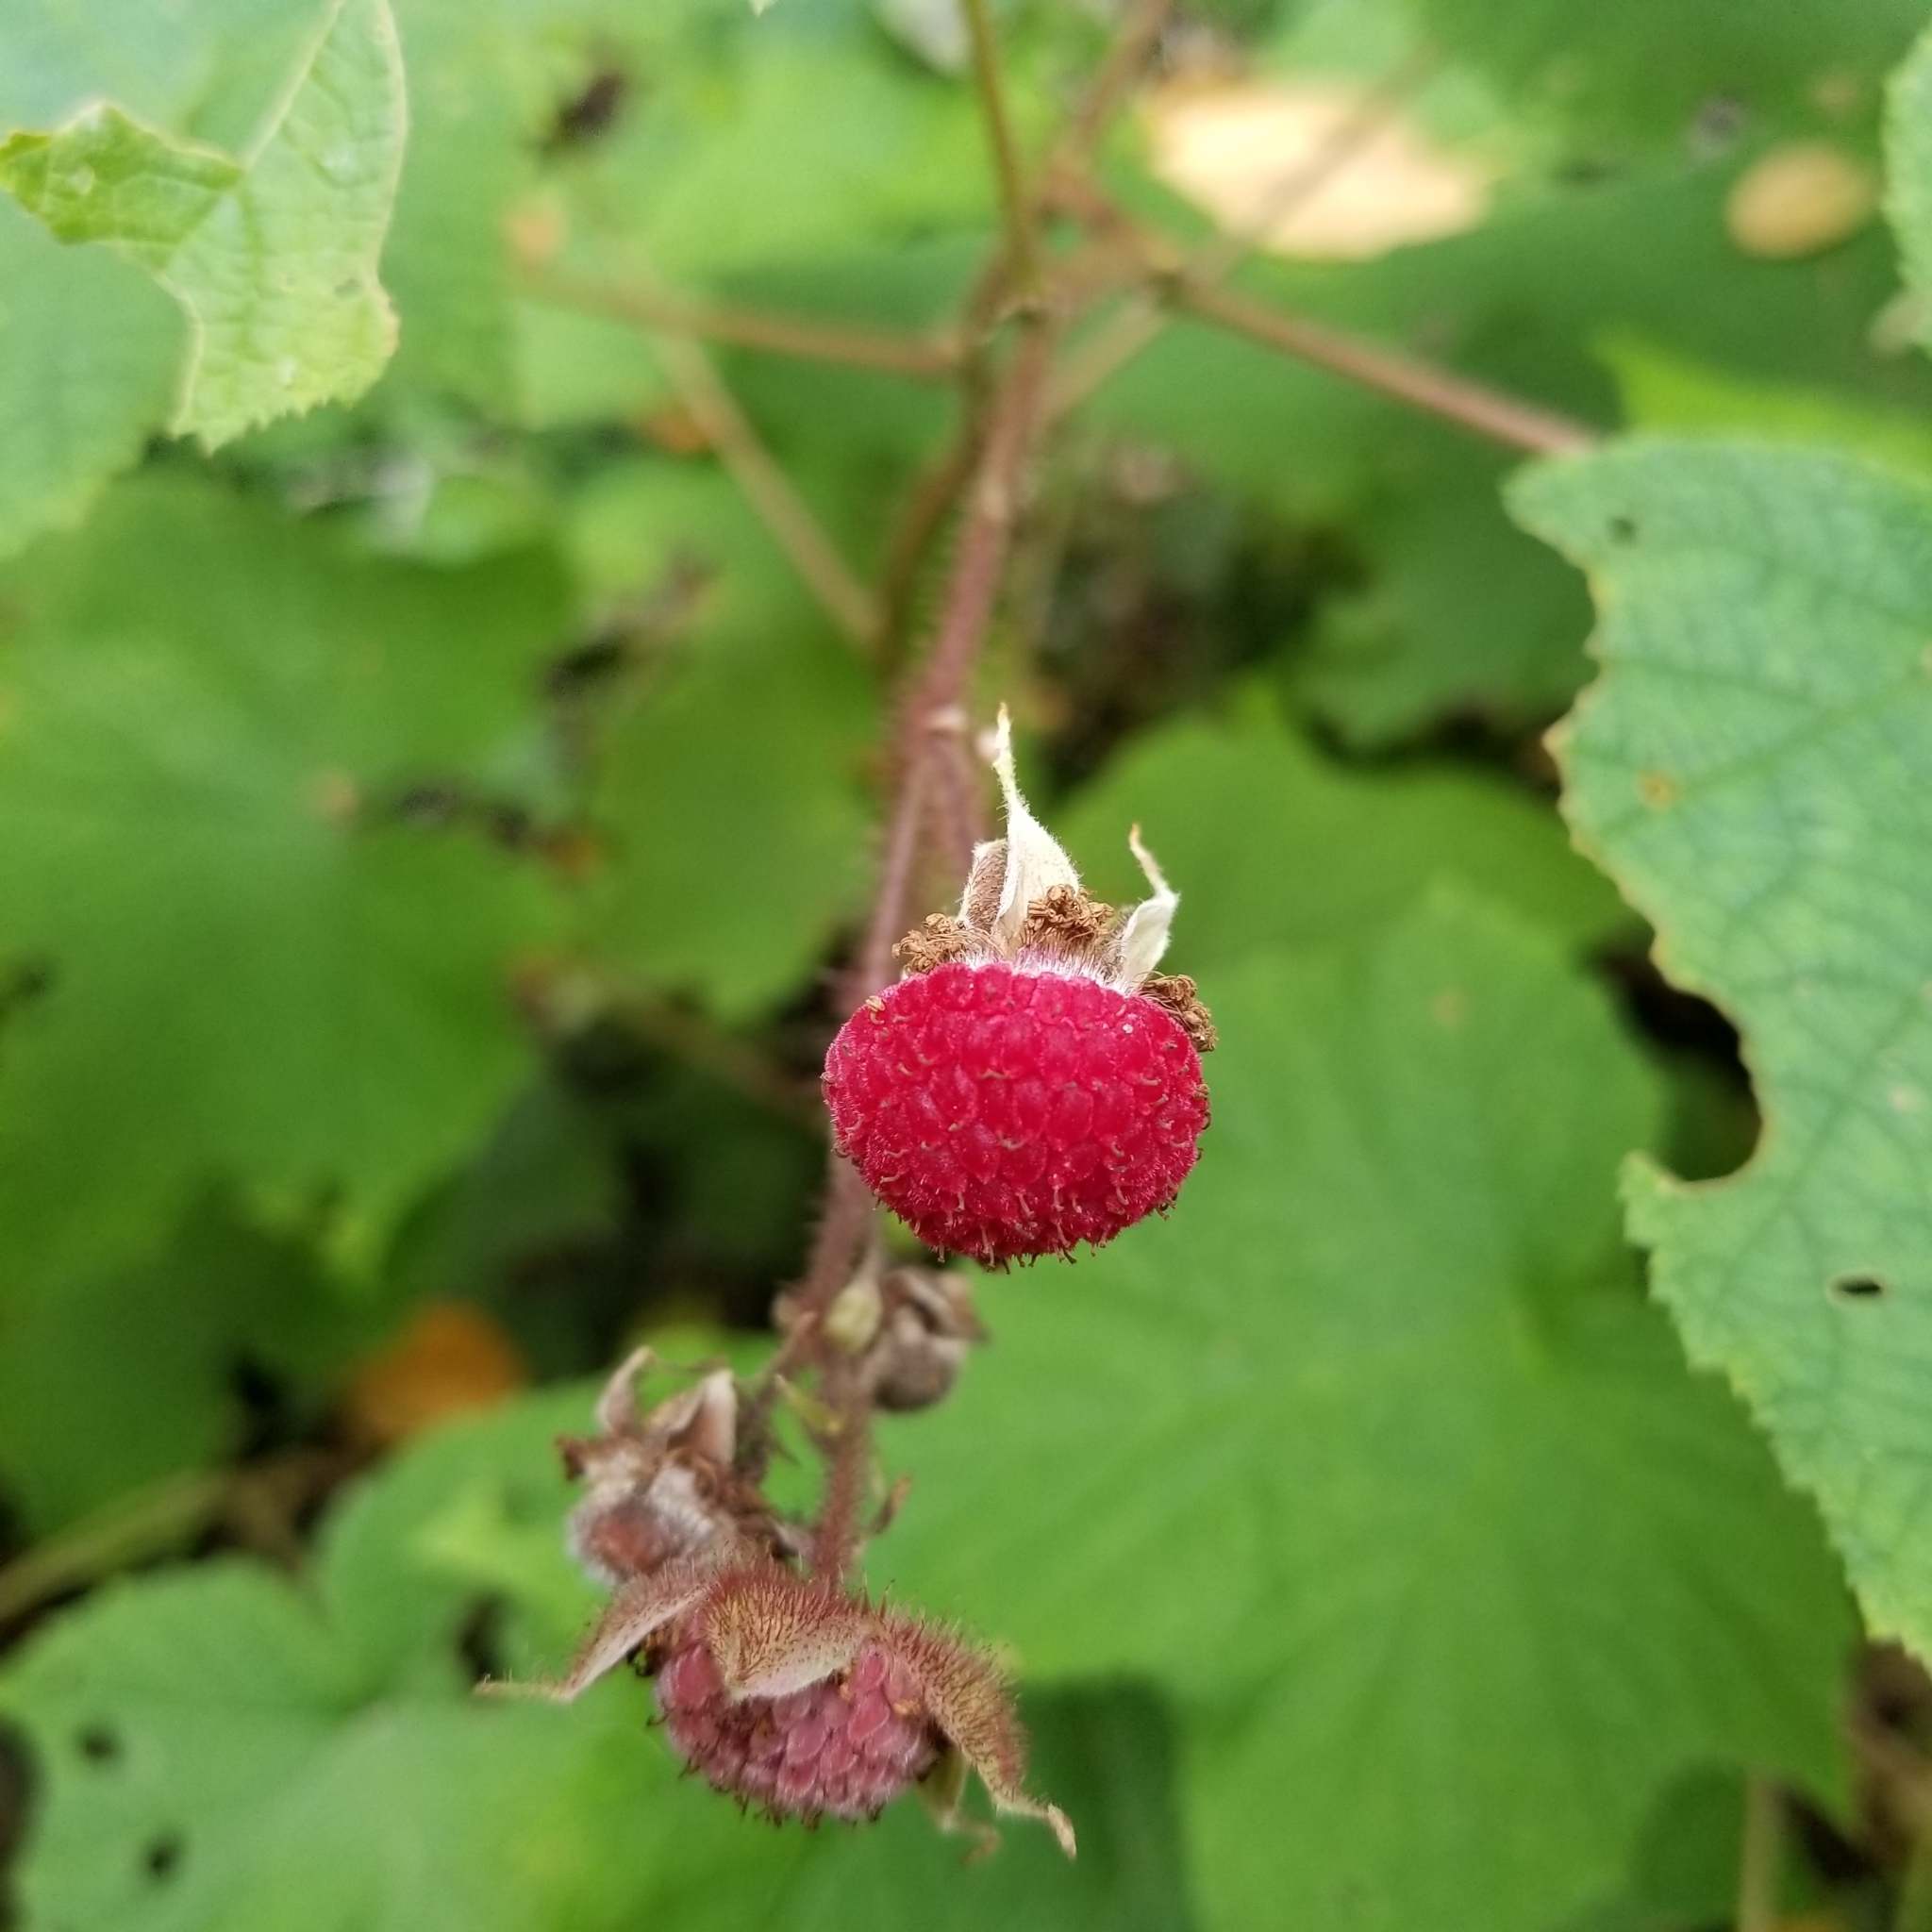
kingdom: Plantae
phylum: Tracheophyta
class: Magnoliopsida
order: Rosales
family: Rosaceae
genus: Rubus
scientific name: Rubus odoratus
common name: Purple-flowered raspberry
